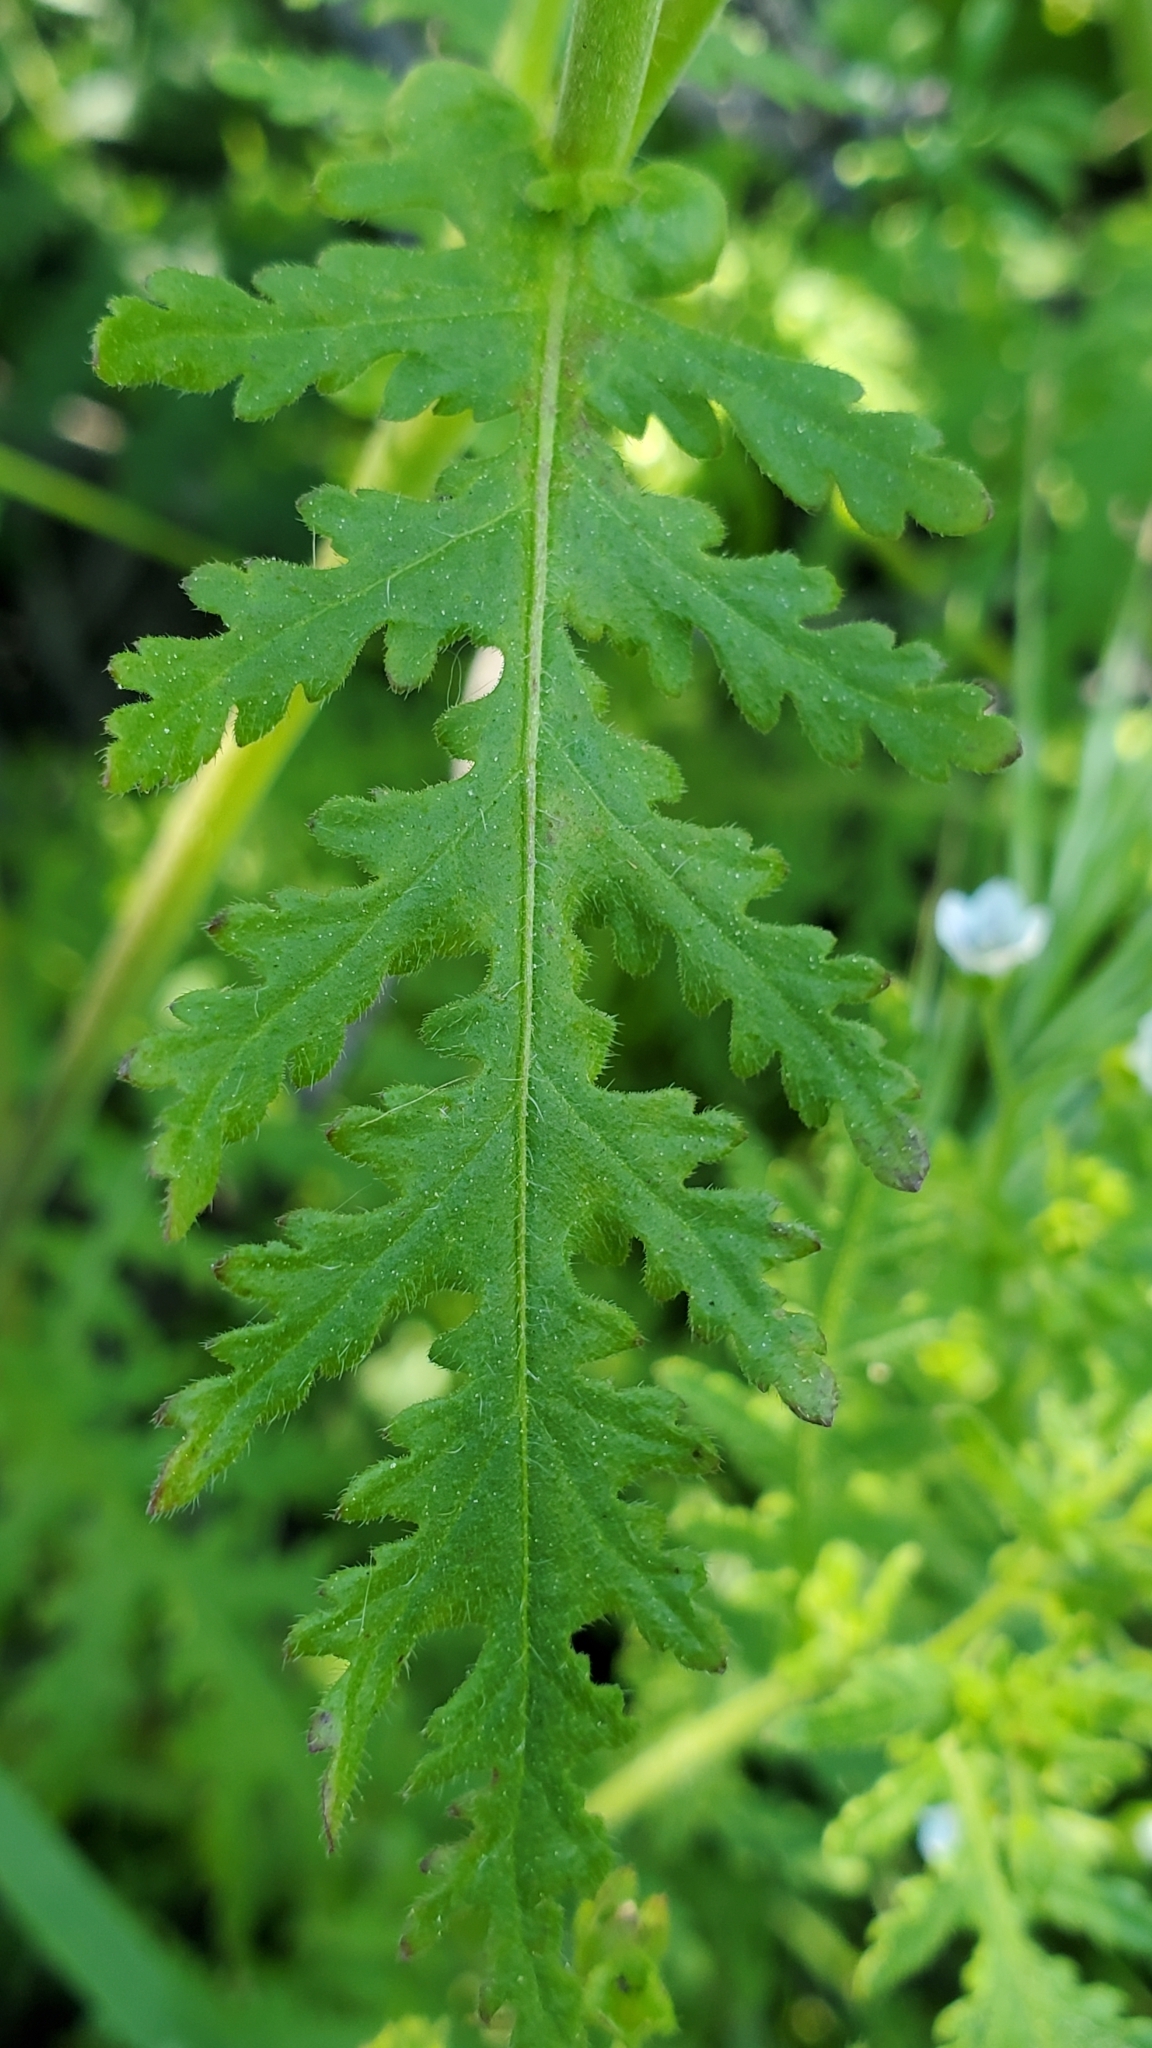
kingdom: Plantae
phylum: Tracheophyta
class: Magnoliopsida
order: Boraginales
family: Hydrophyllaceae
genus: Eucrypta
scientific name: Eucrypta chrysanthemifolia
